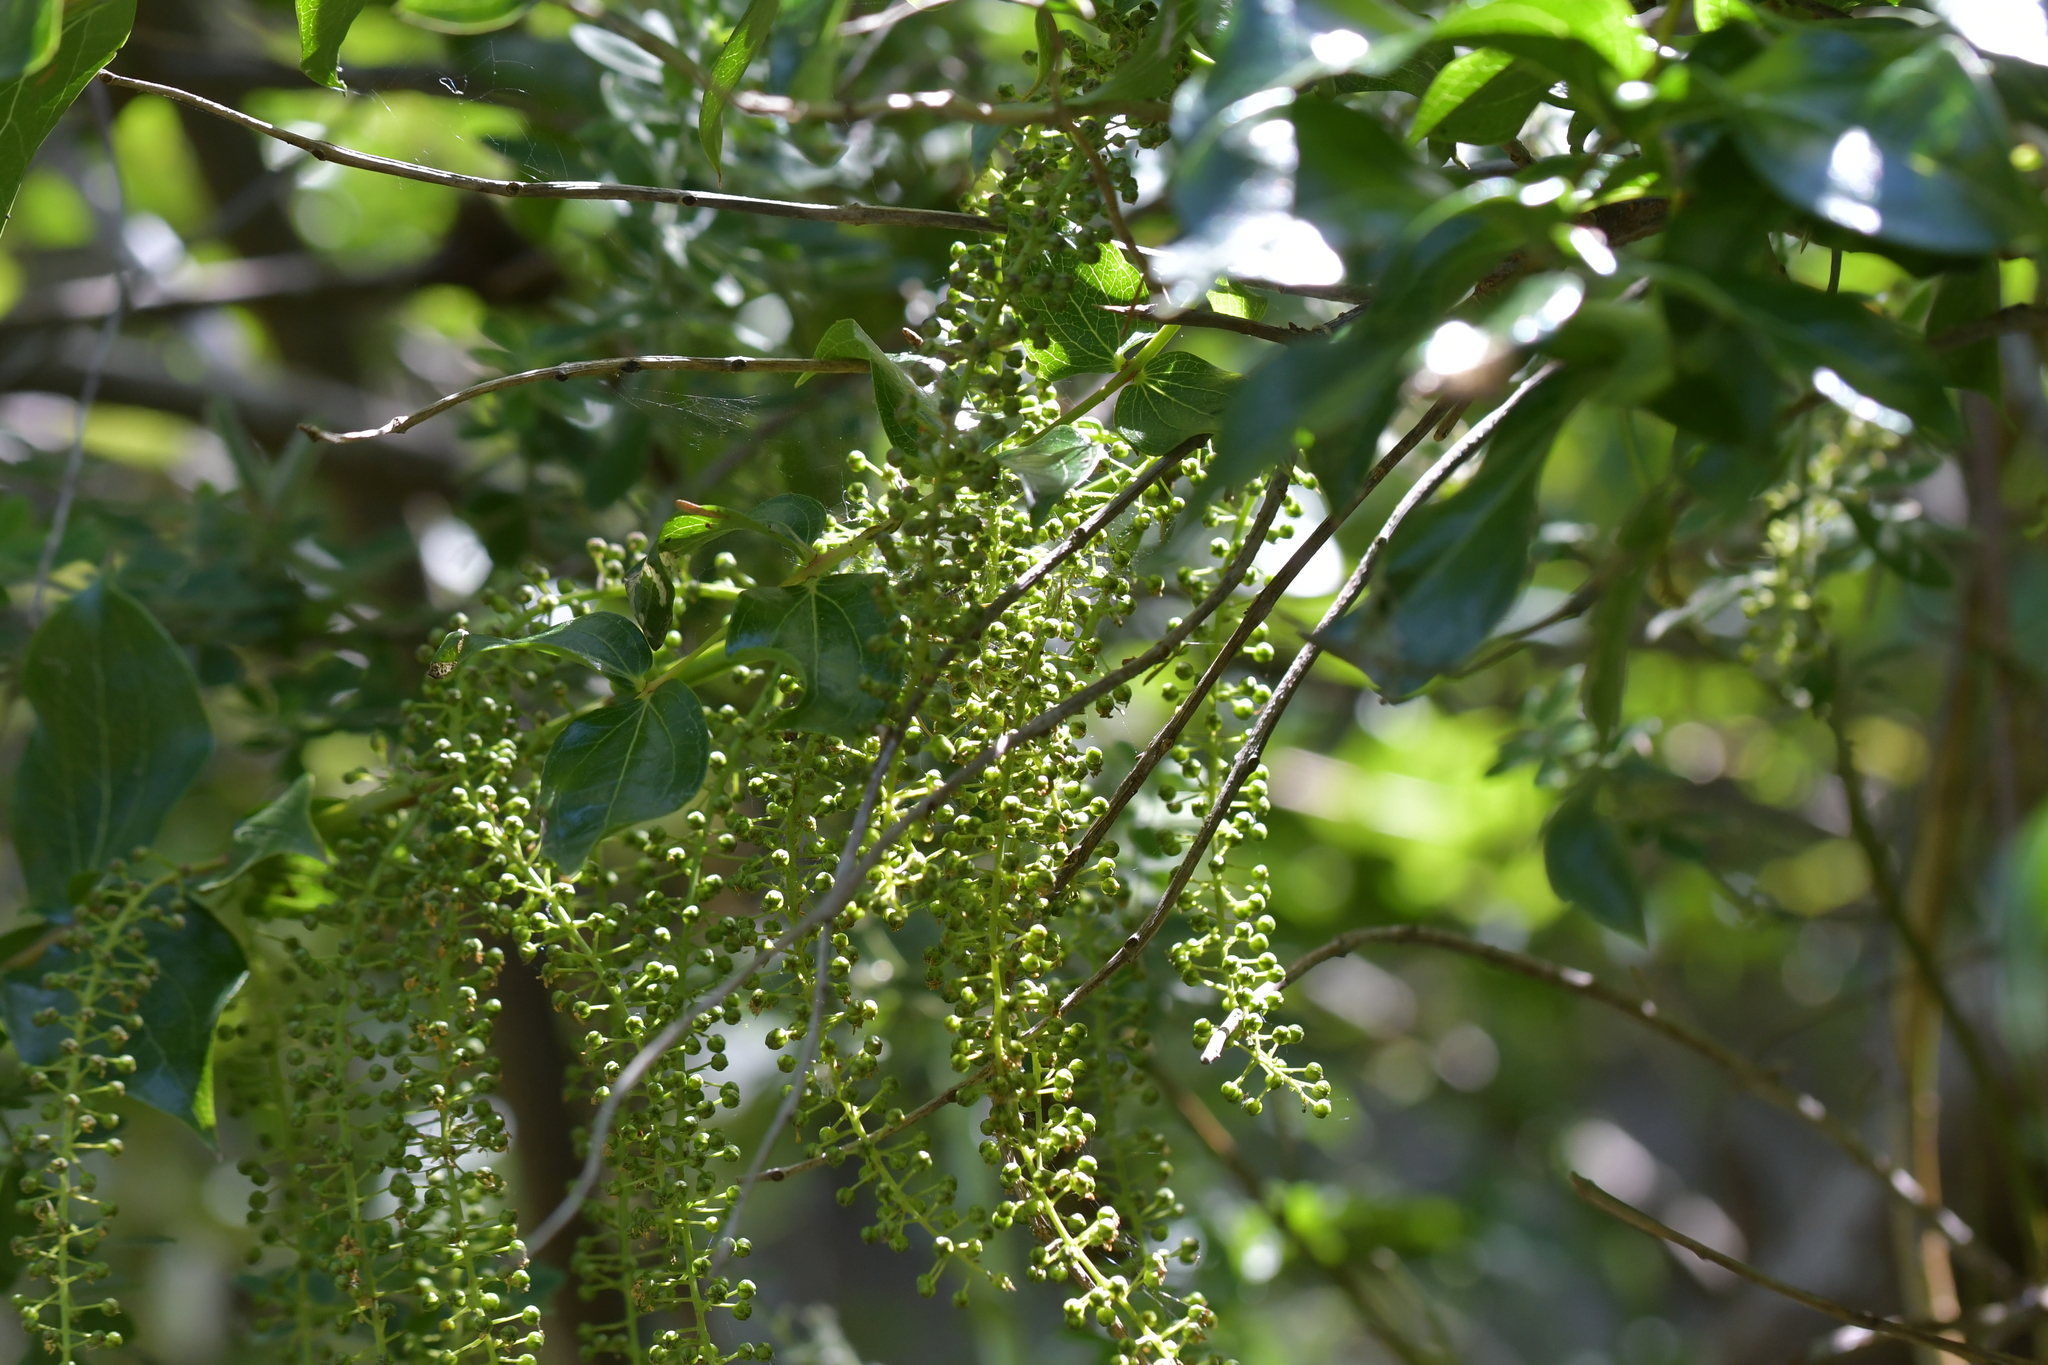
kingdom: Plantae
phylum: Tracheophyta
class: Magnoliopsida
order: Cucurbitales
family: Coriariaceae
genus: Coriaria
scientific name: Coriaria arborea
